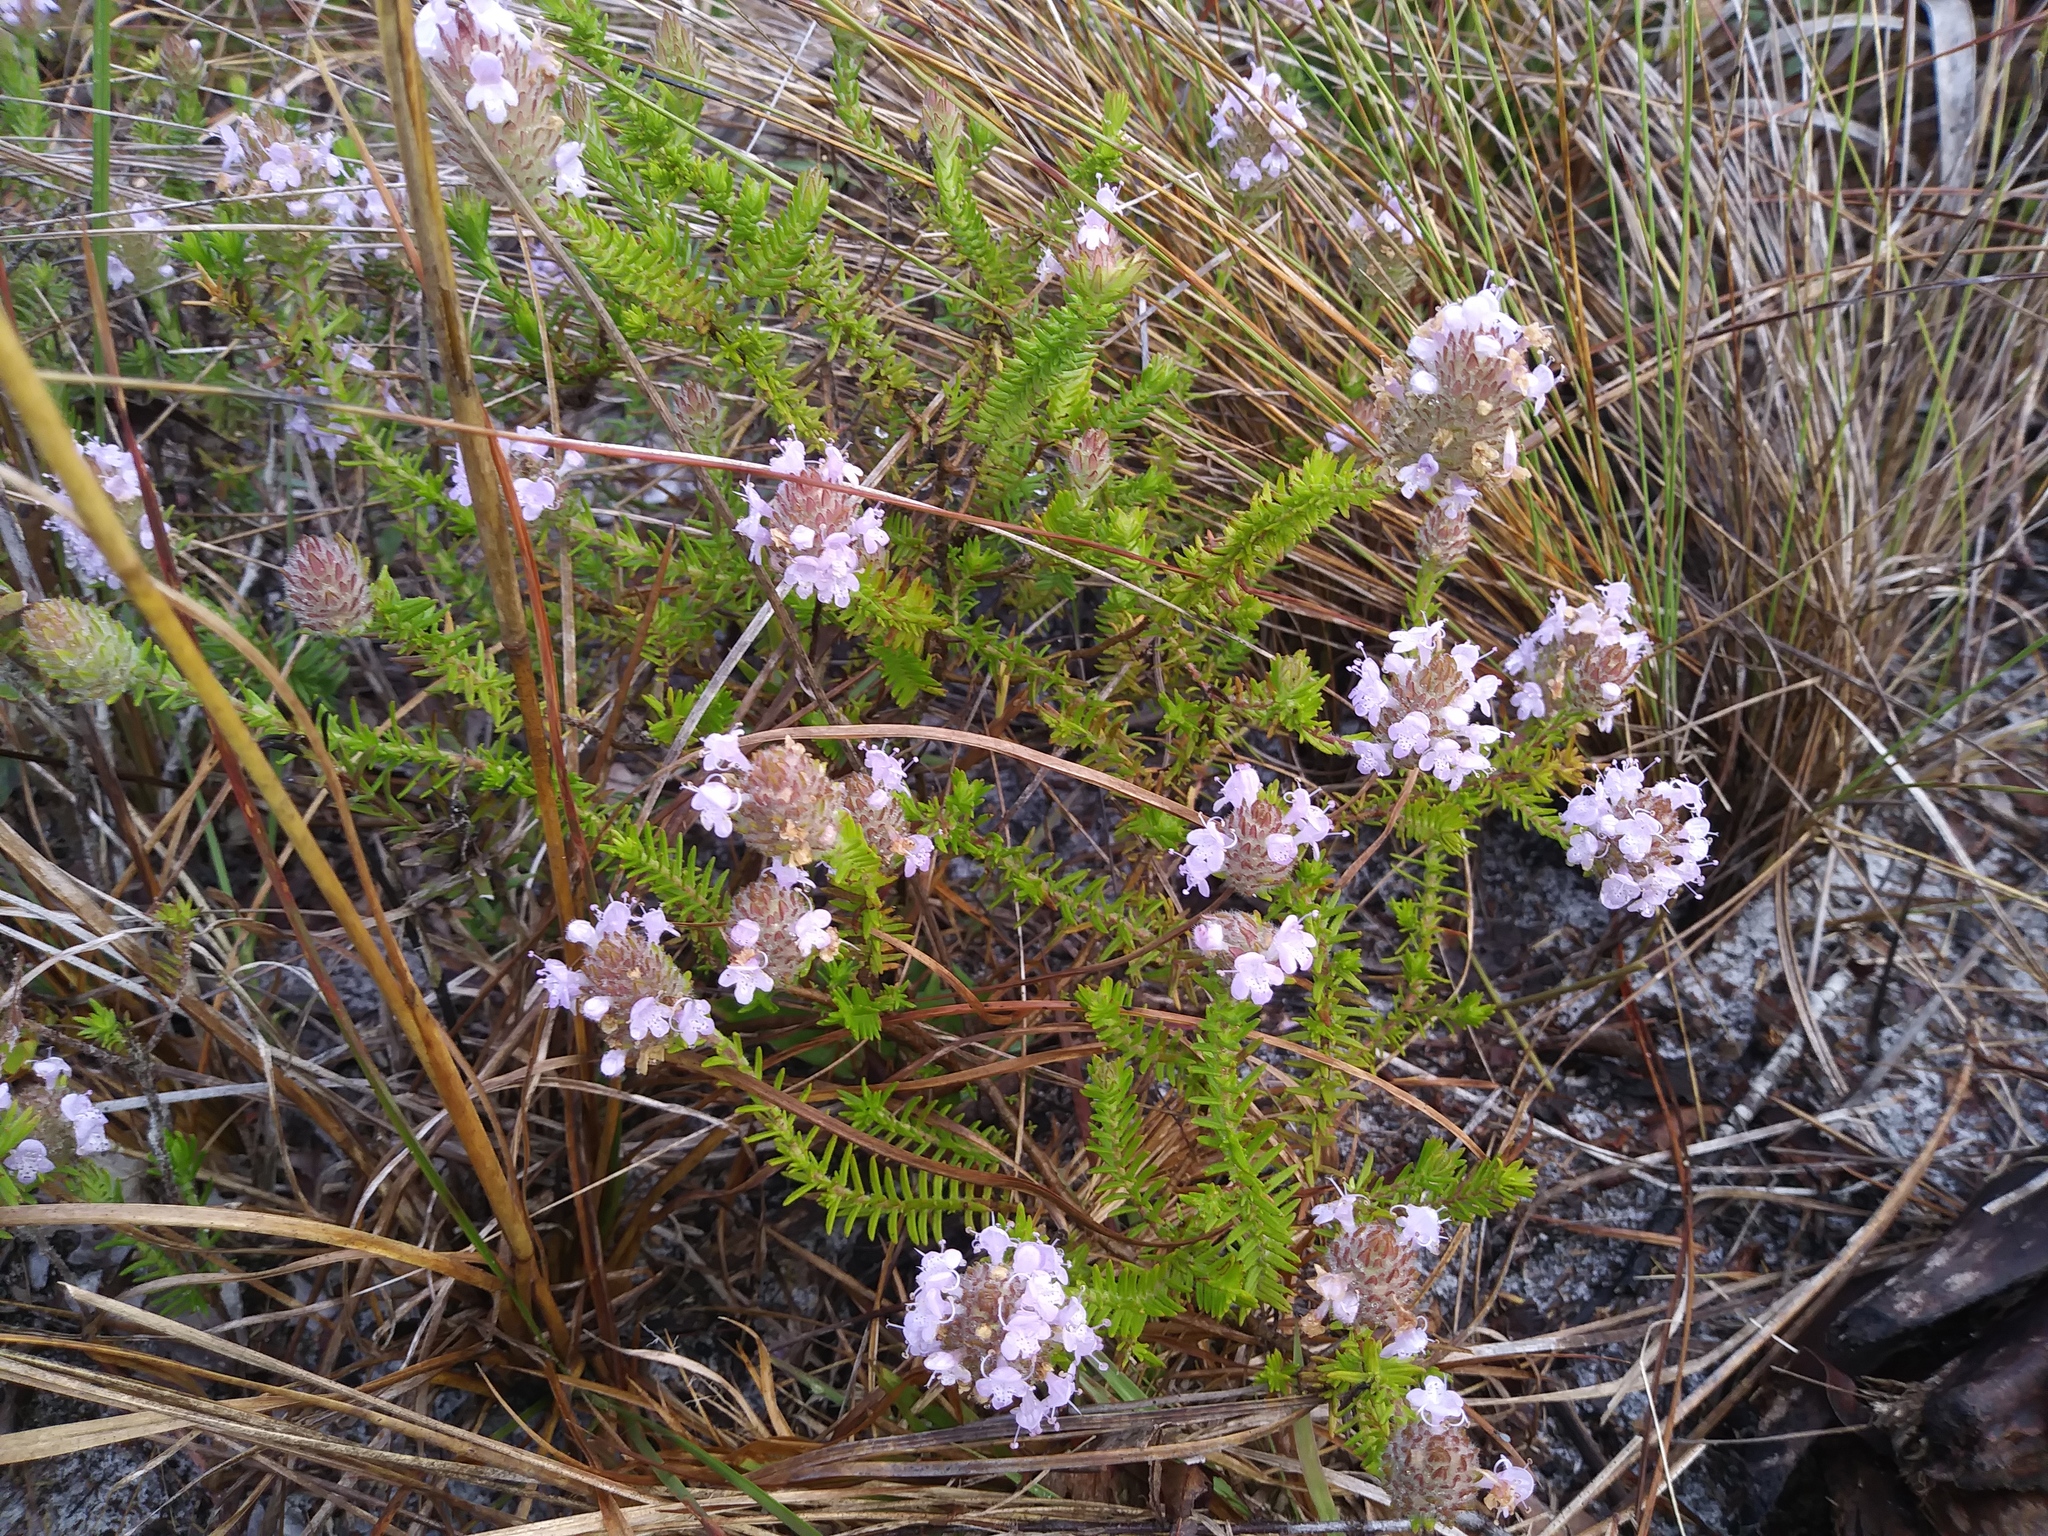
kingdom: Plantae
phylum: Tracheophyta
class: Magnoliopsida
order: Lamiales
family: Lamiaceae
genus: Piloblephis
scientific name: Piloblephis rigida
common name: Wild pennyroyal
